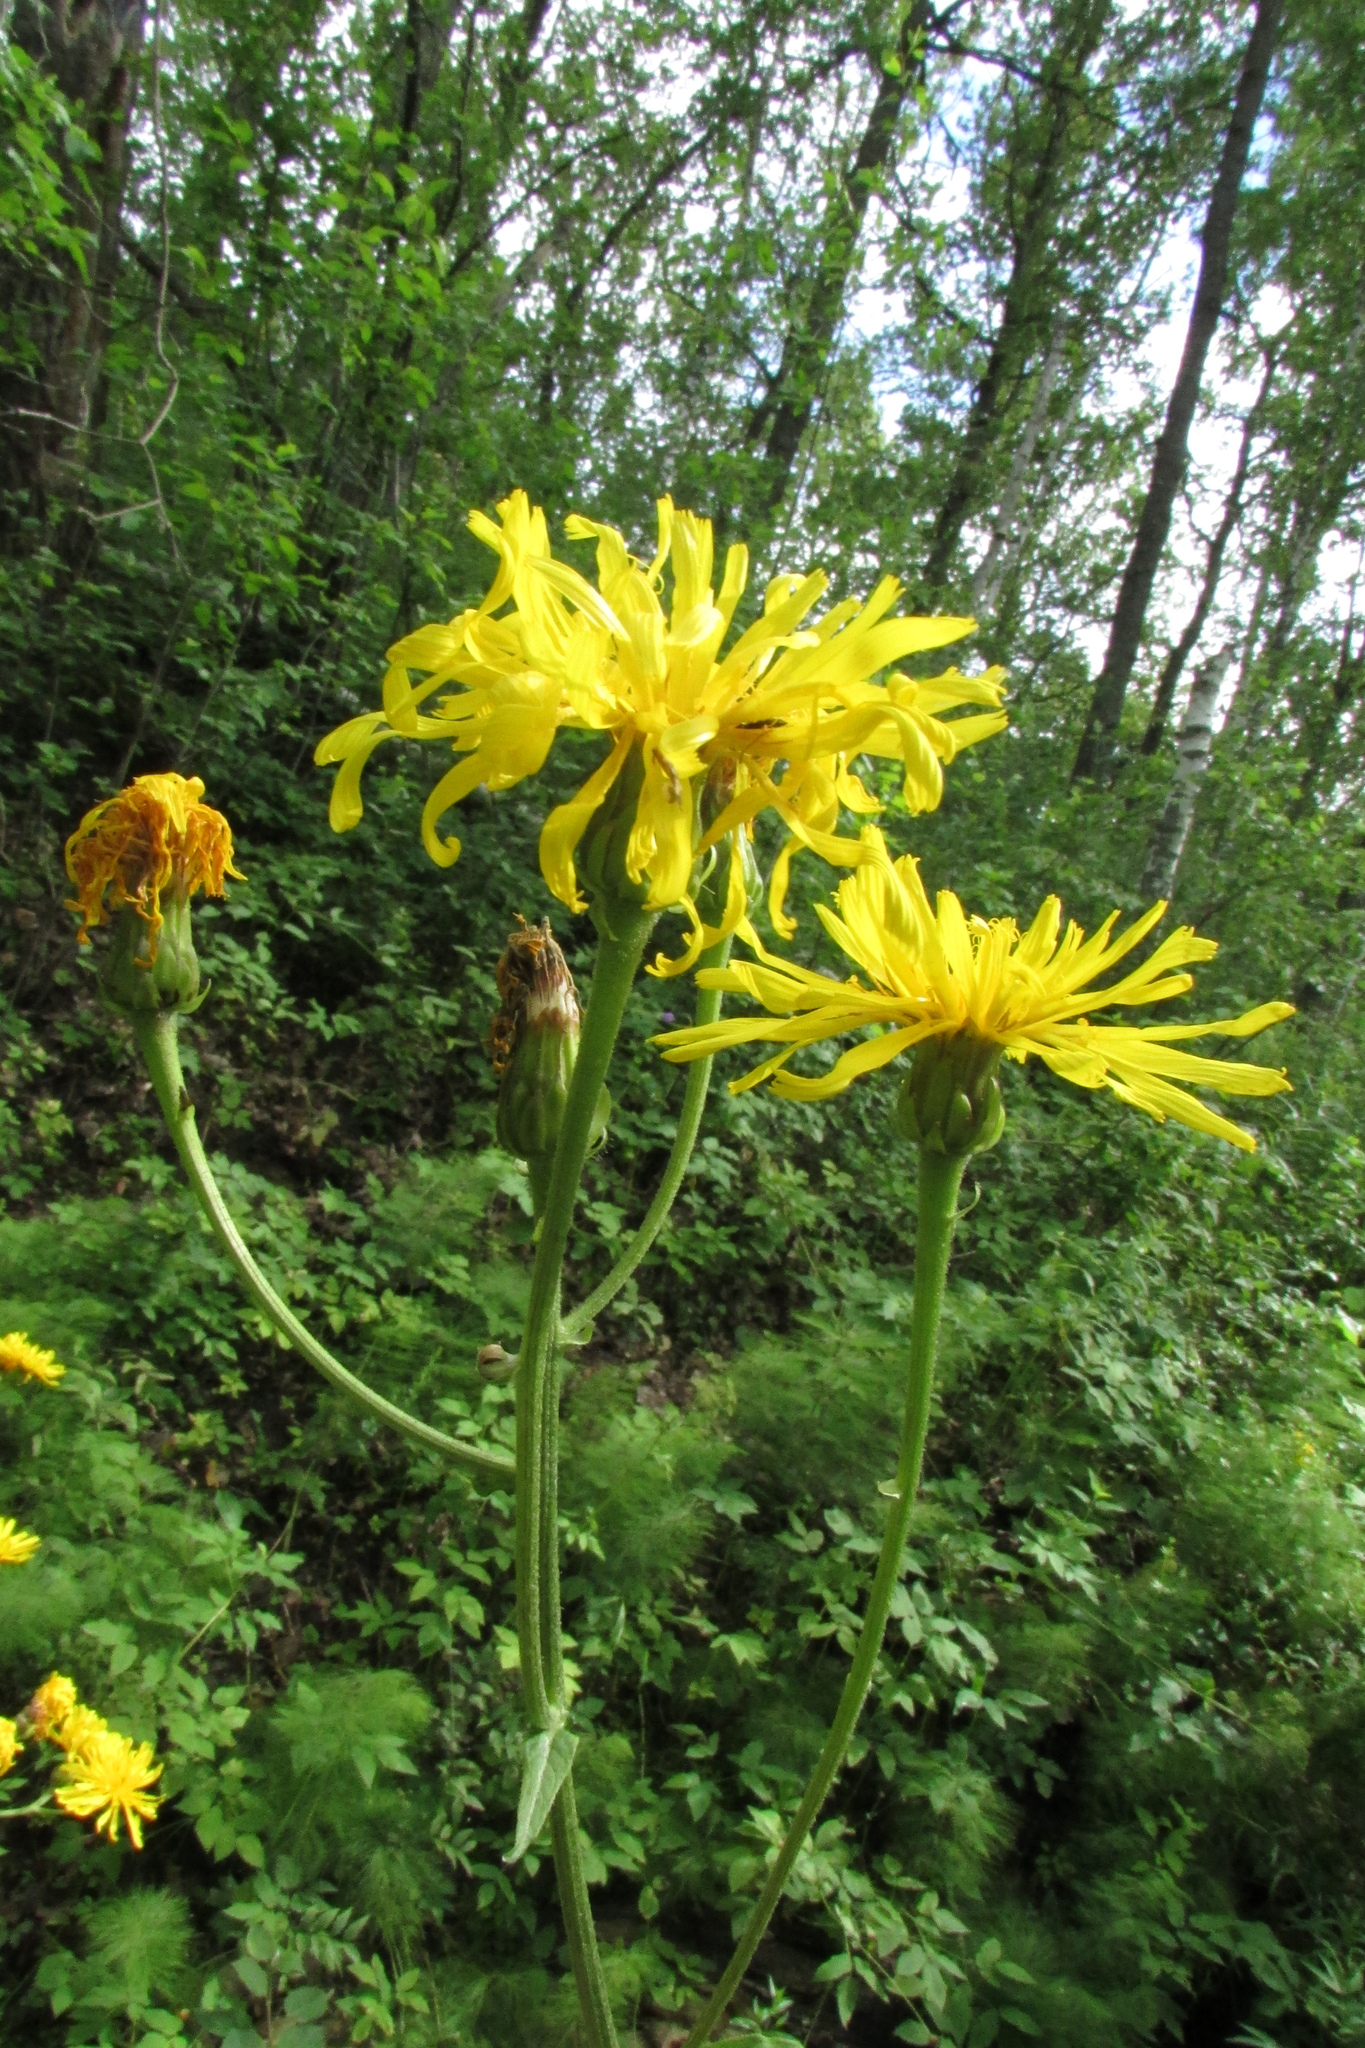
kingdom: Plantae
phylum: Tracheophyta
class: Magnoliopsida
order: Asterales
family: Asteraceae
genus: Crepis
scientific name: Crepis sibirica
